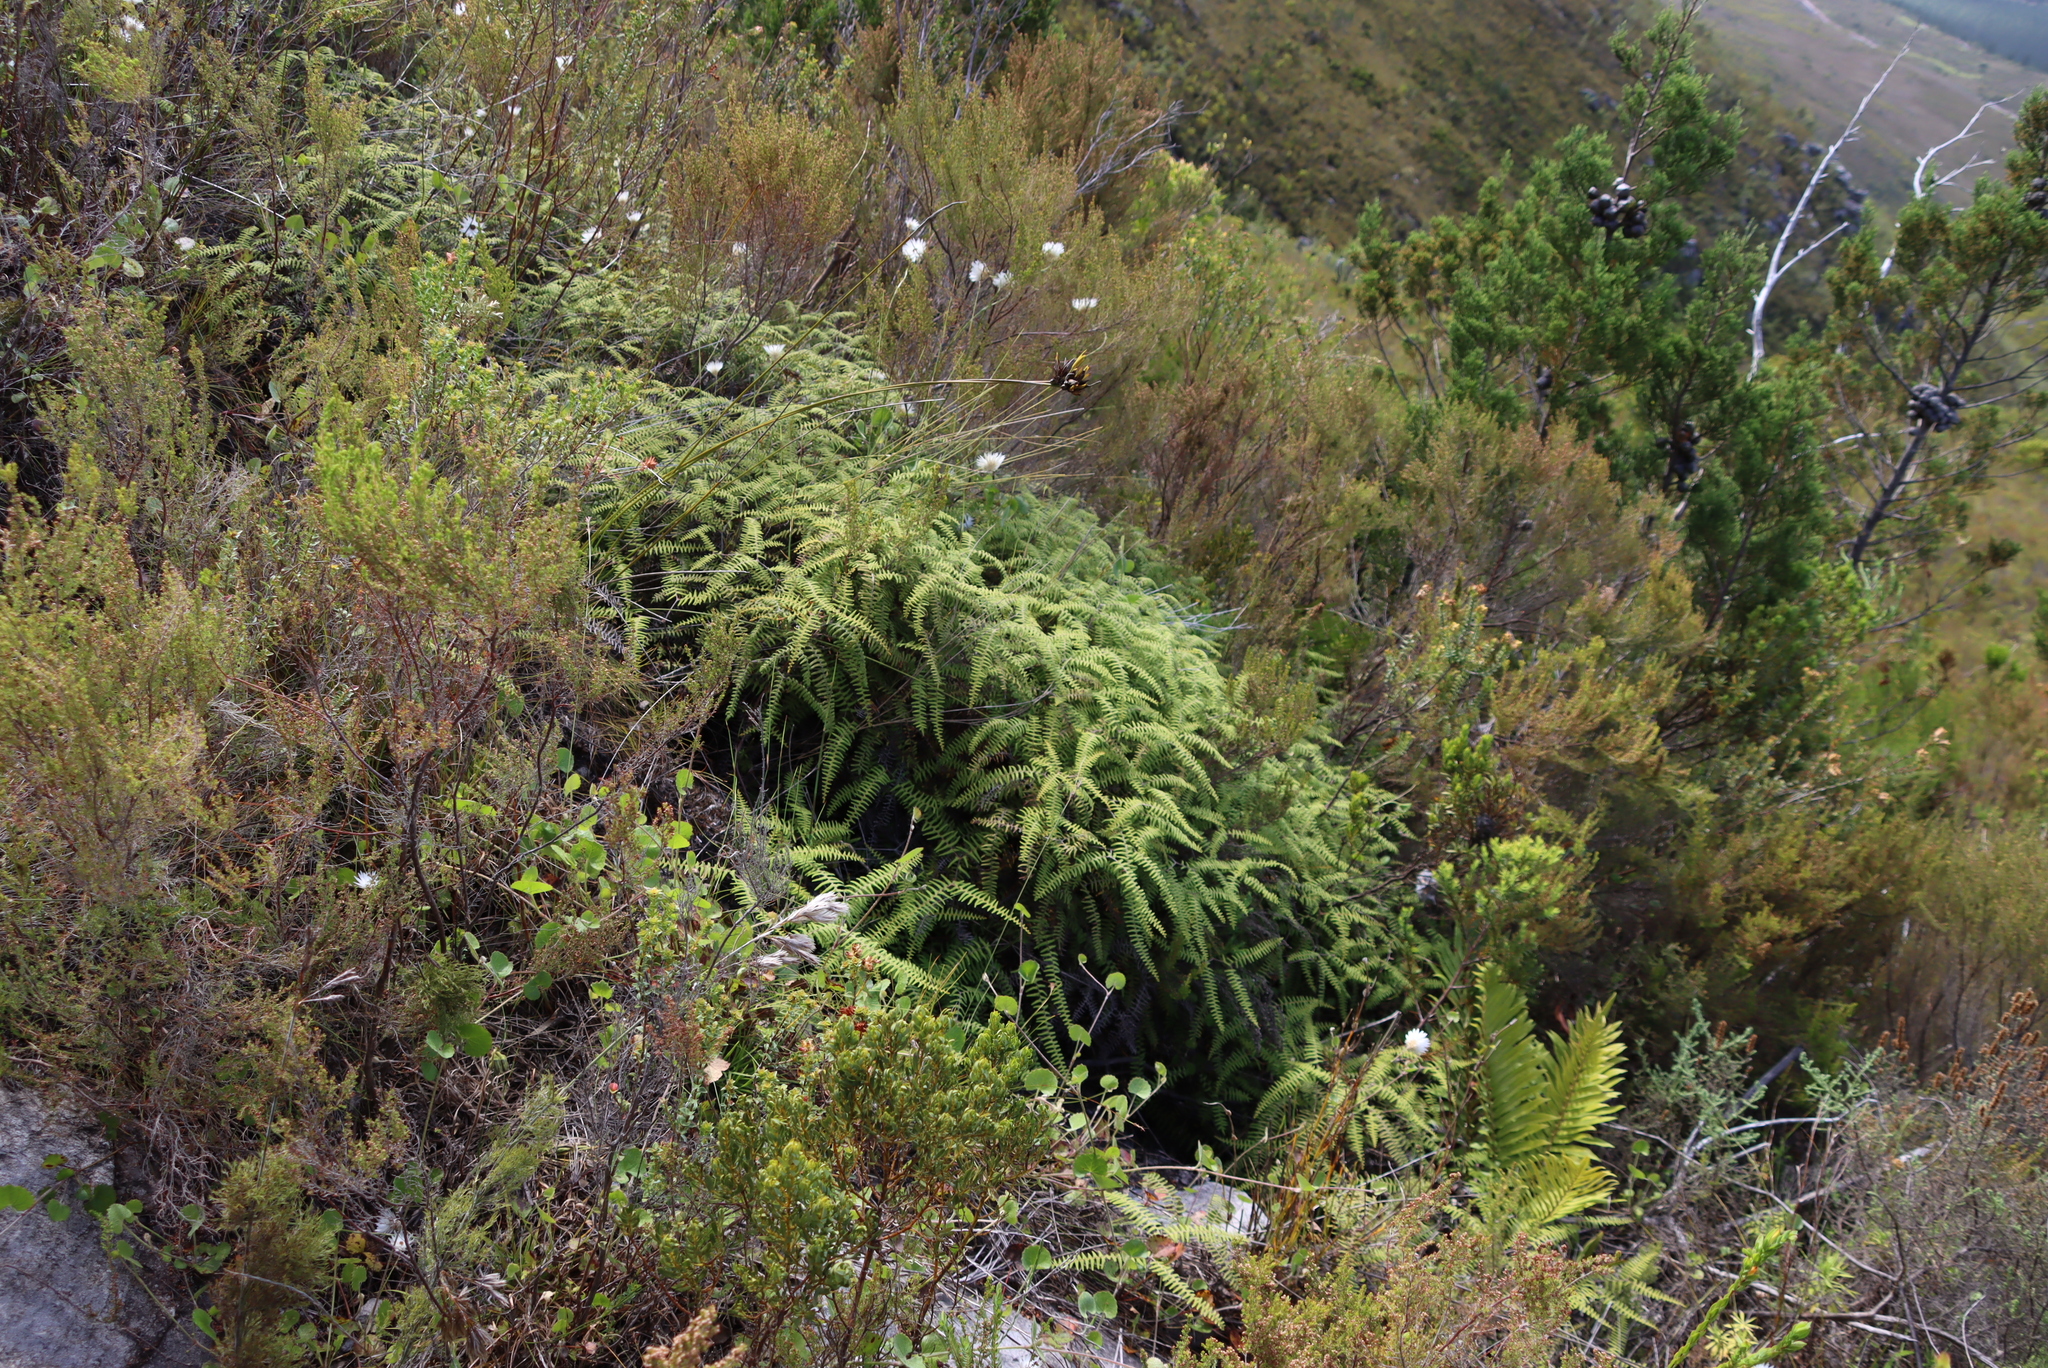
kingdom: Plantae
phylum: Tracheophyta
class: Polypodiopsida
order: Gleicheniales
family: Gleicheniaceae
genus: Gleichenia
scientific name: Gleichenia polypodioides
